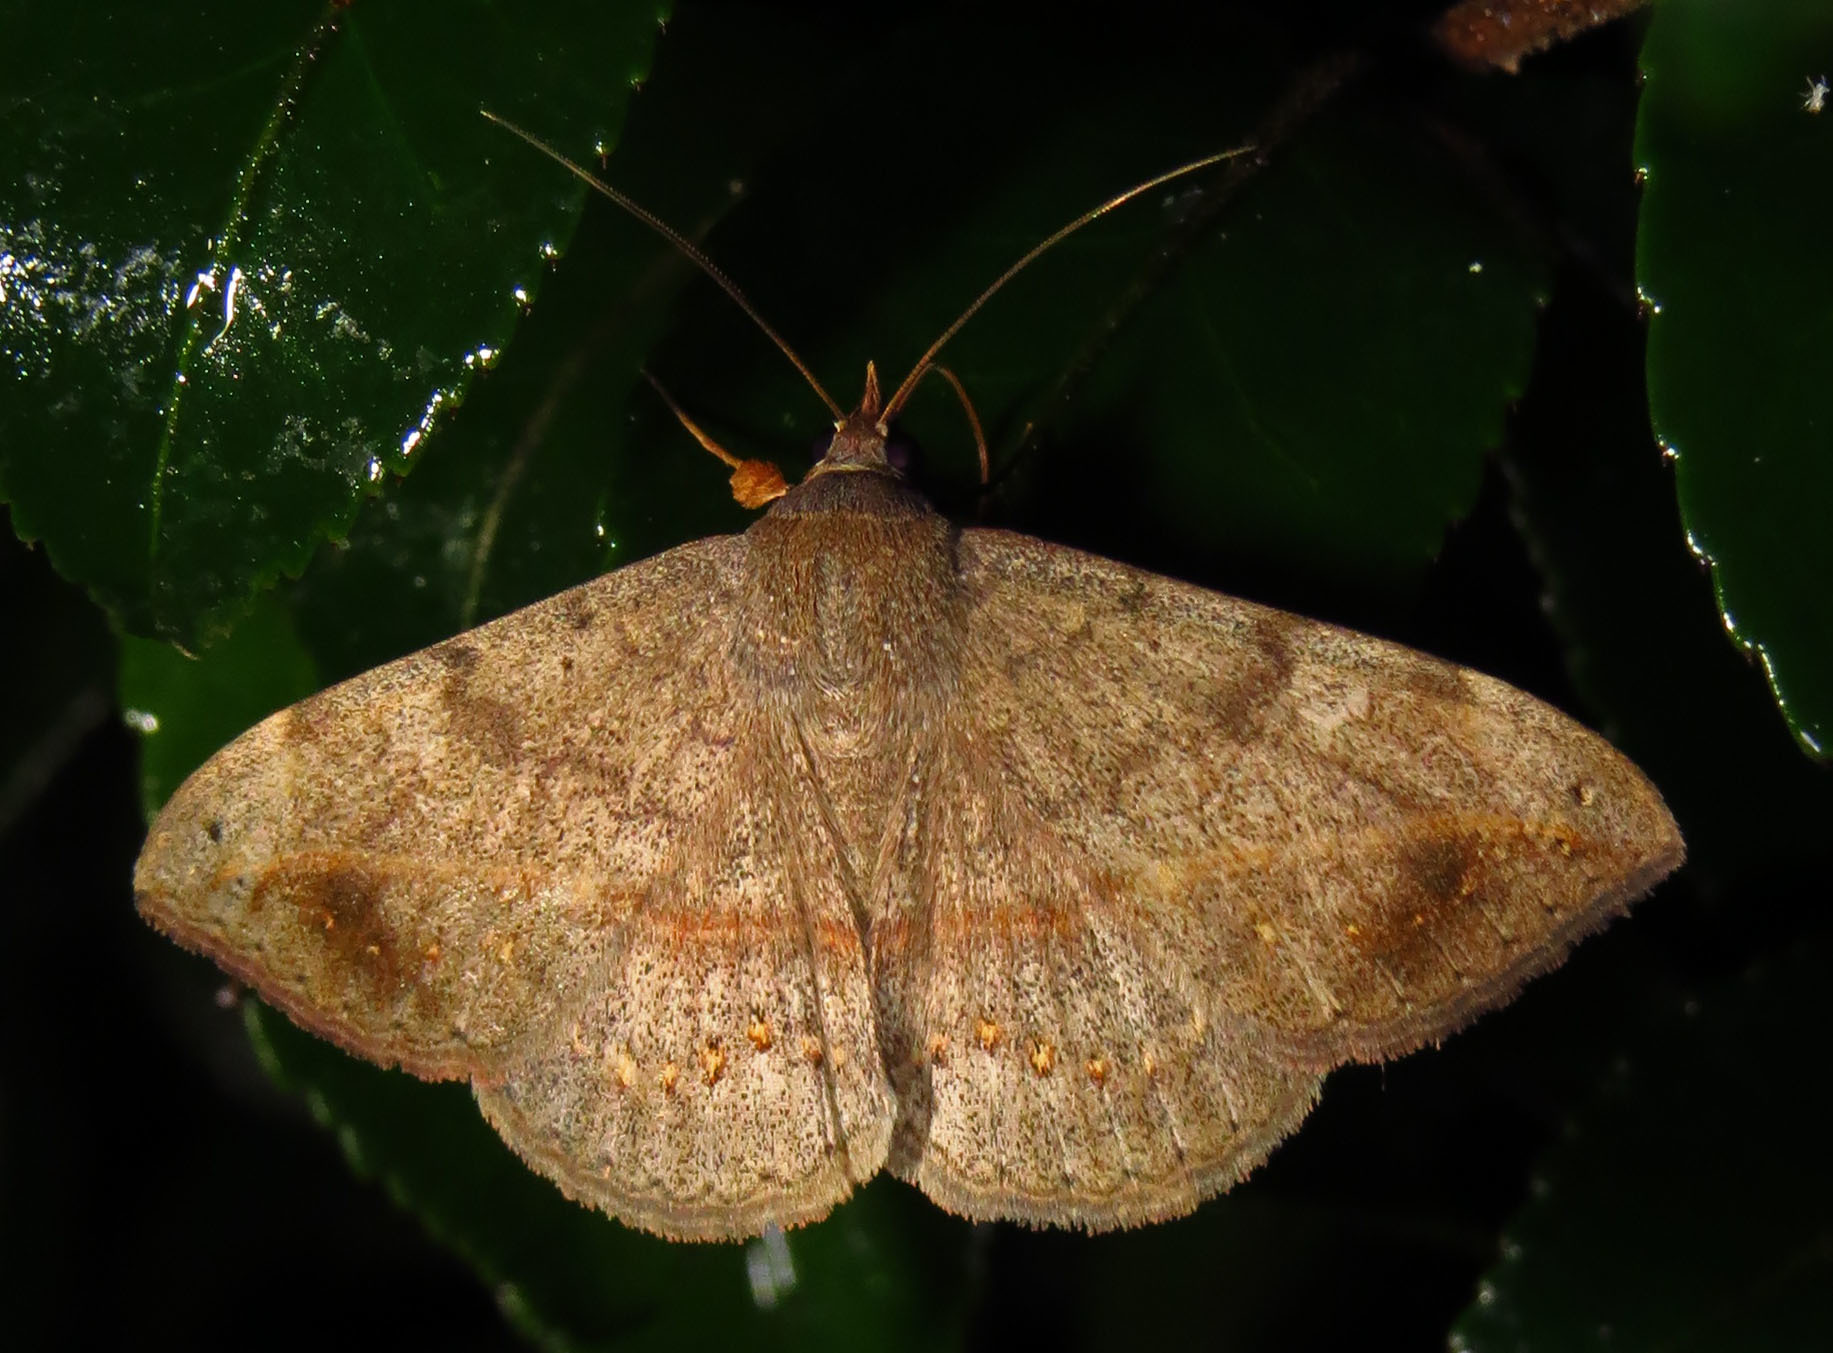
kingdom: Animalia
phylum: Arthropoda
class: Insecta
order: Lepidoptera
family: Erebidae
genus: Anticarsia
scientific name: Anticarsia gemmatalis
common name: Cutworm moth
